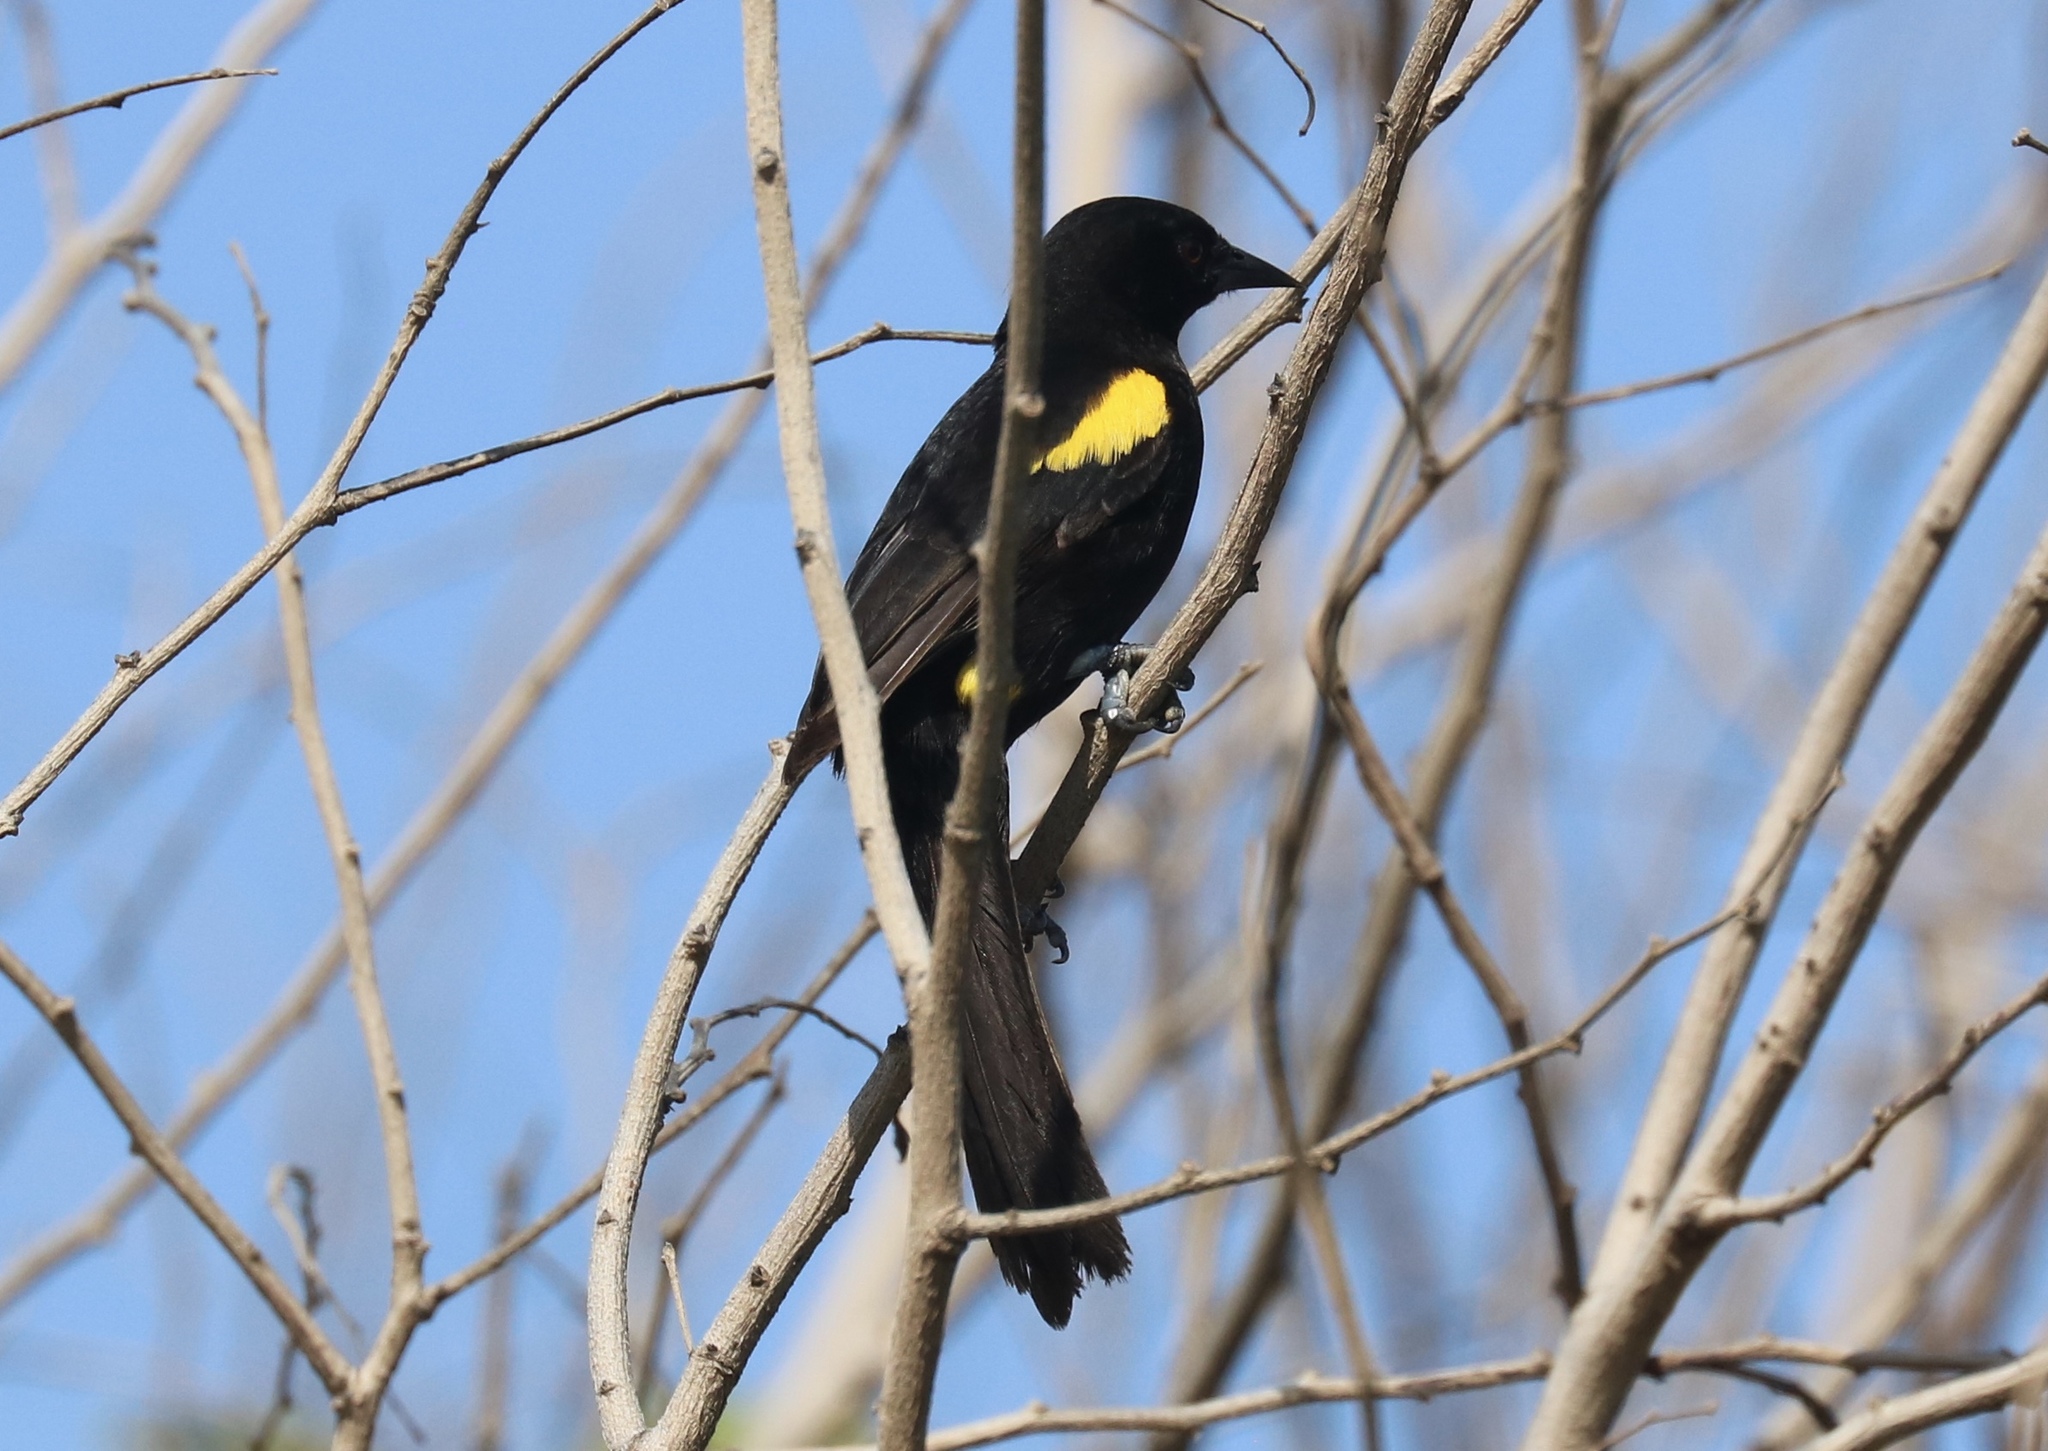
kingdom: Animalia
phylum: Chordata
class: Aves
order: Passeriformes
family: Icteridae
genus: Icterus
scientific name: Icterus cayanensis
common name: Epaulet oriole
